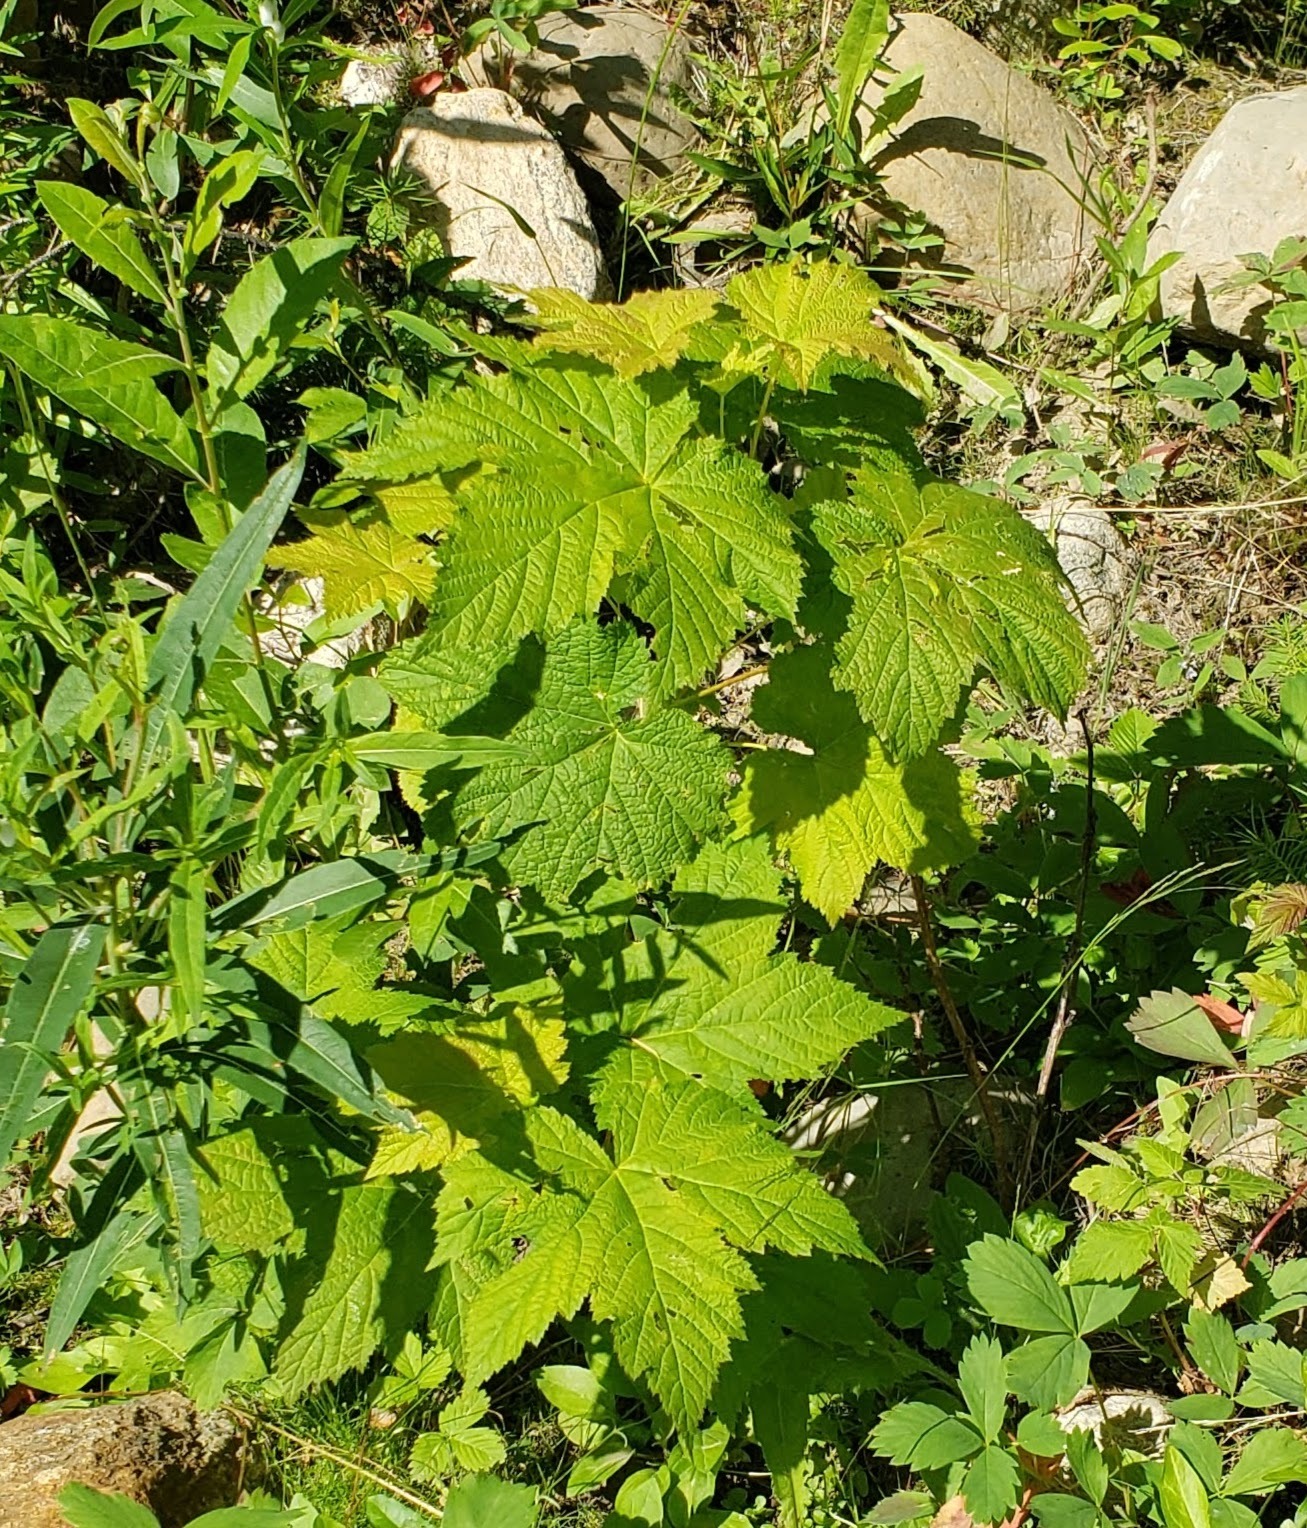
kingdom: Plantae
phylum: Tracheophyta
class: Magnoliopsida
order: Rosales
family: Rosaceae
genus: Rubus
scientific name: Rubus parviflorus
